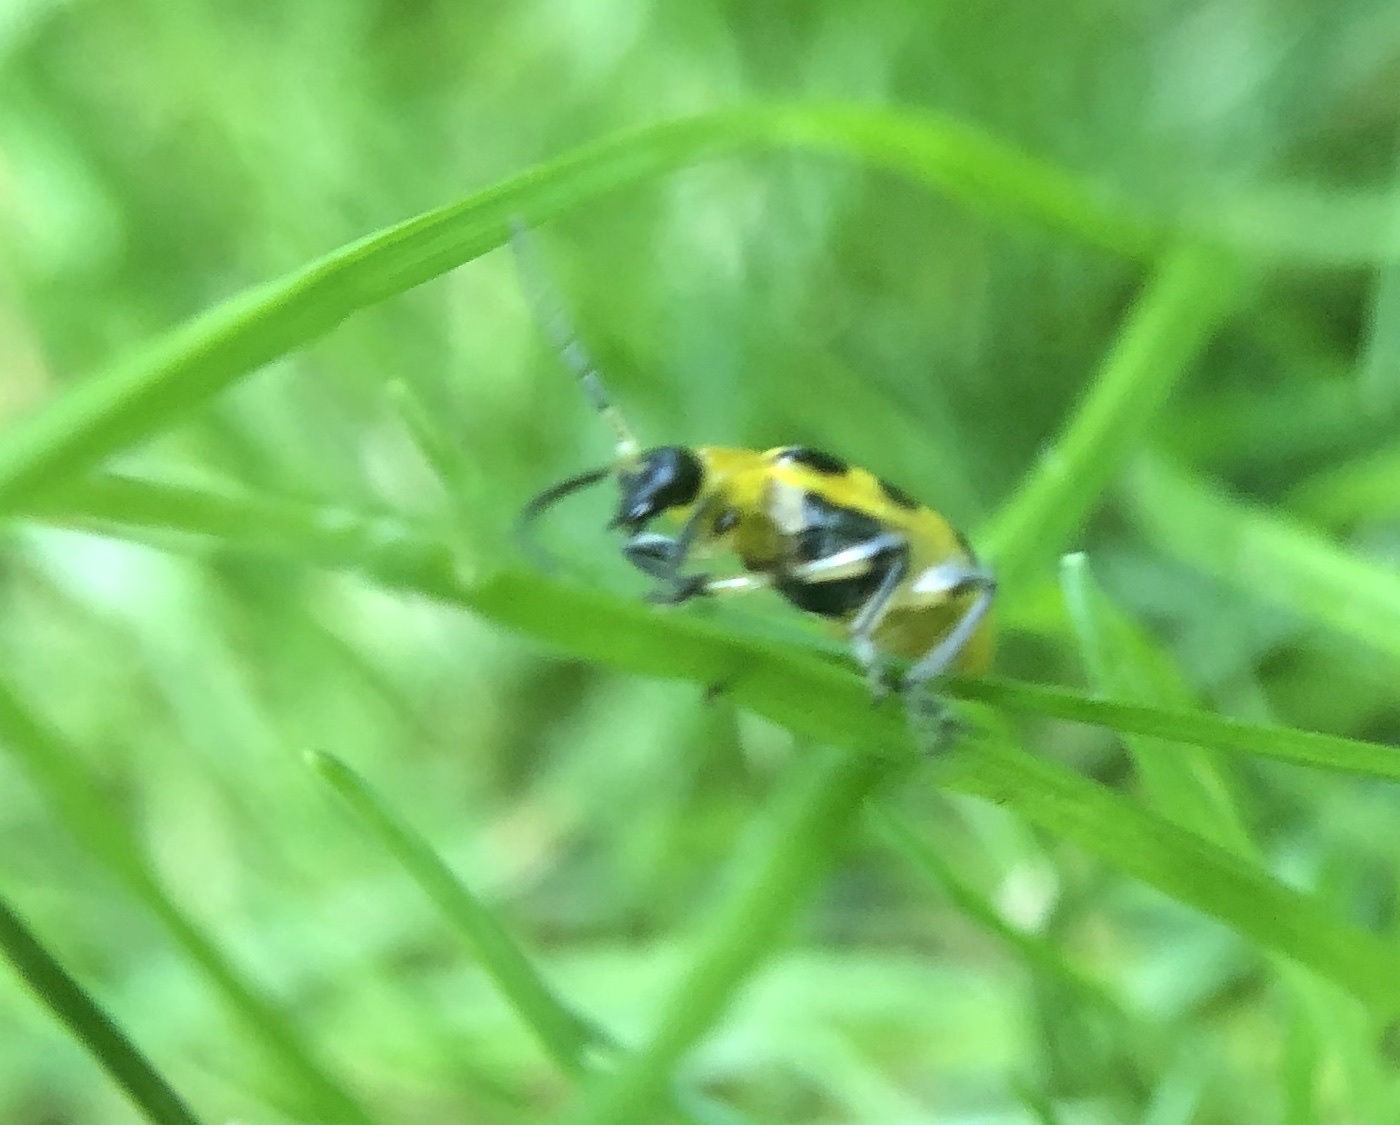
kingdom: Animalia
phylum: Arthropoda
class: Insecta
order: Coleoptera
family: Chrysomelidae
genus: Diabrotica
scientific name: Diabrotica undecimpunctata
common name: Spotted cucumber beetle
